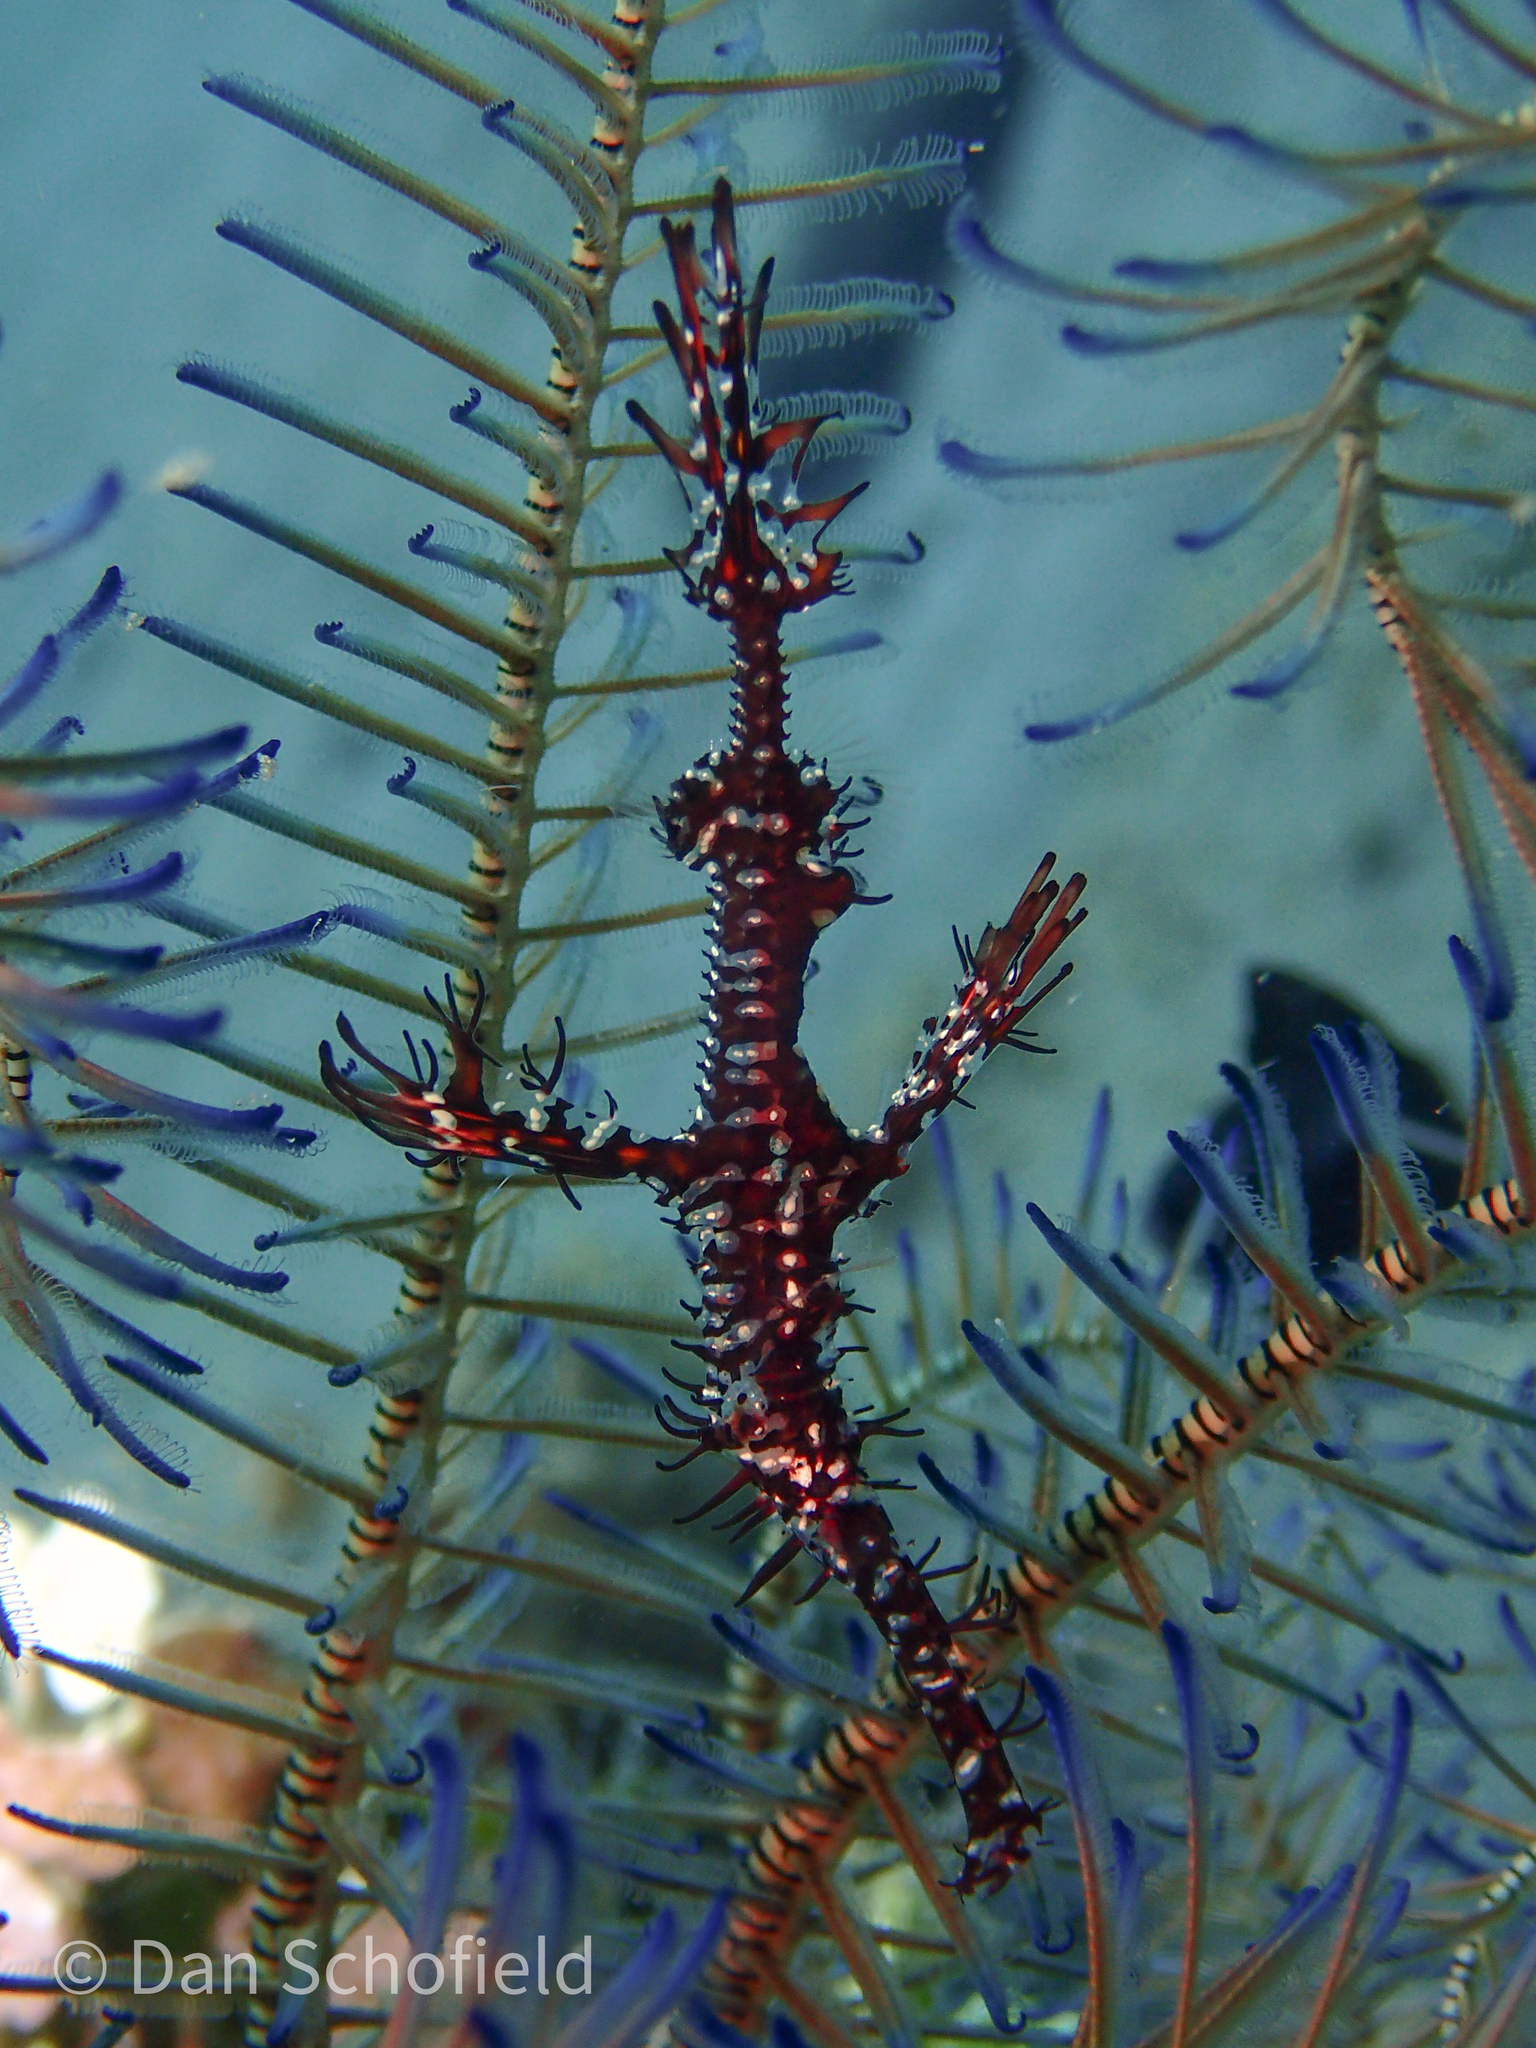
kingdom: Animalia
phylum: Chordata
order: Syngnathiformes
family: Solenostomidae
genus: Solenostomus
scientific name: Solenostomus paradoxus
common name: Ghost pipefish
